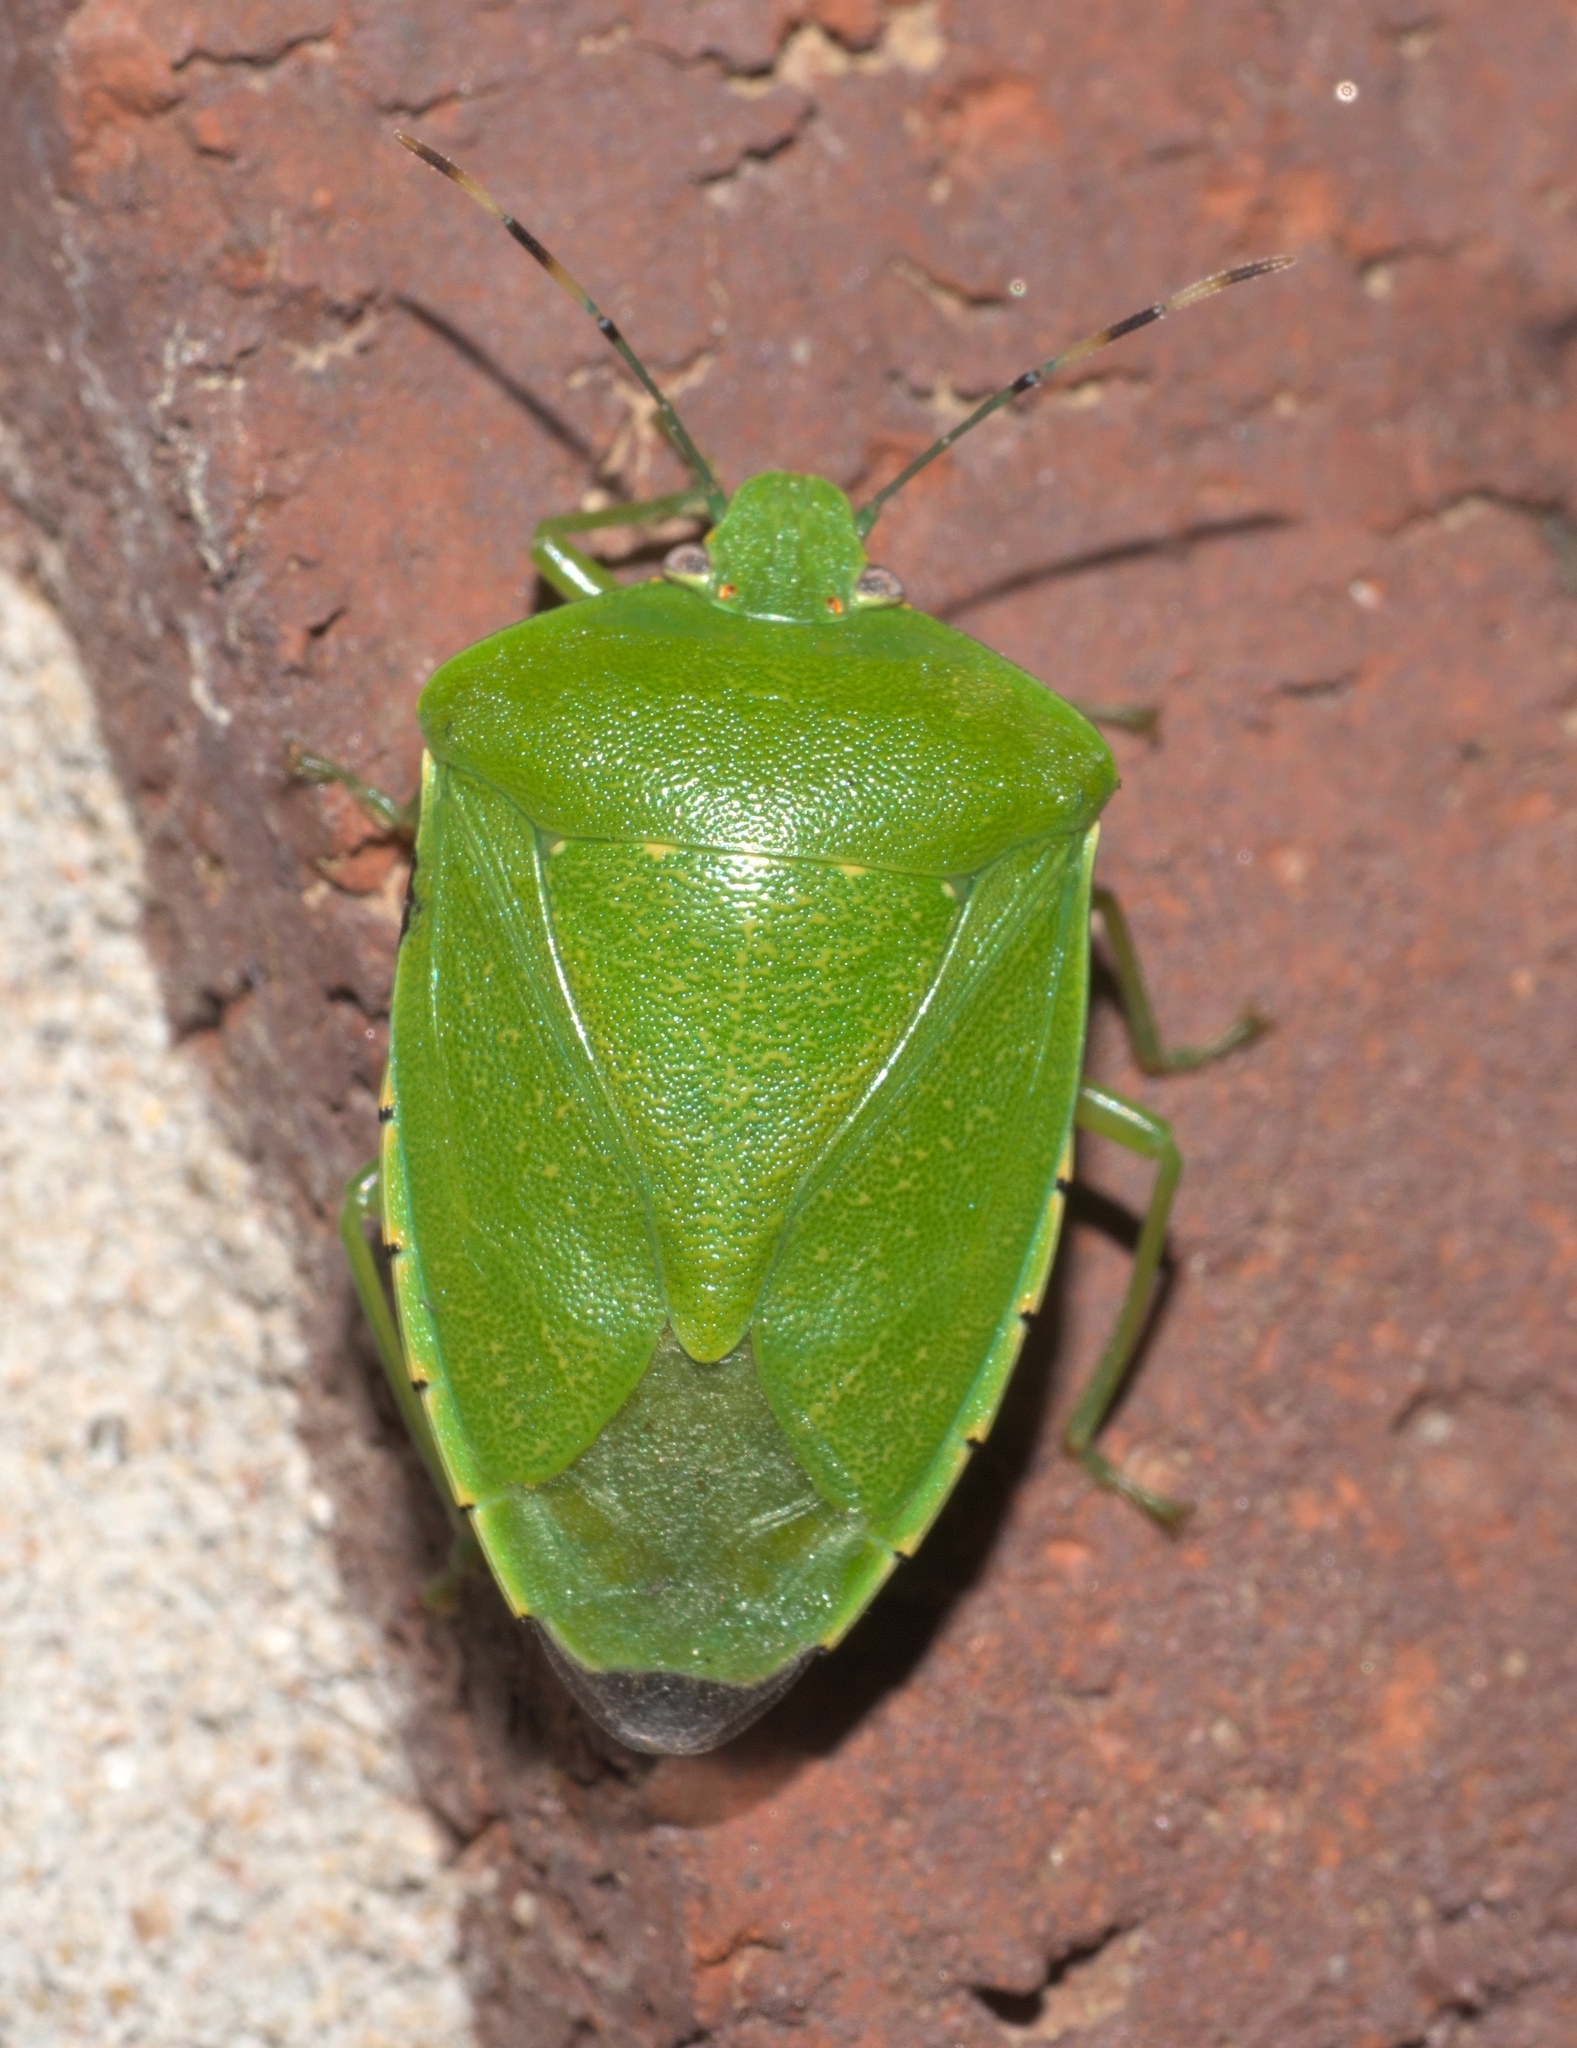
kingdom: Animalia
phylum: Arthropoda
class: Insecta
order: Hemiptera
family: Pentatomidae
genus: Chinavia
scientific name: Chinavia hilaris
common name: Green stink bug
